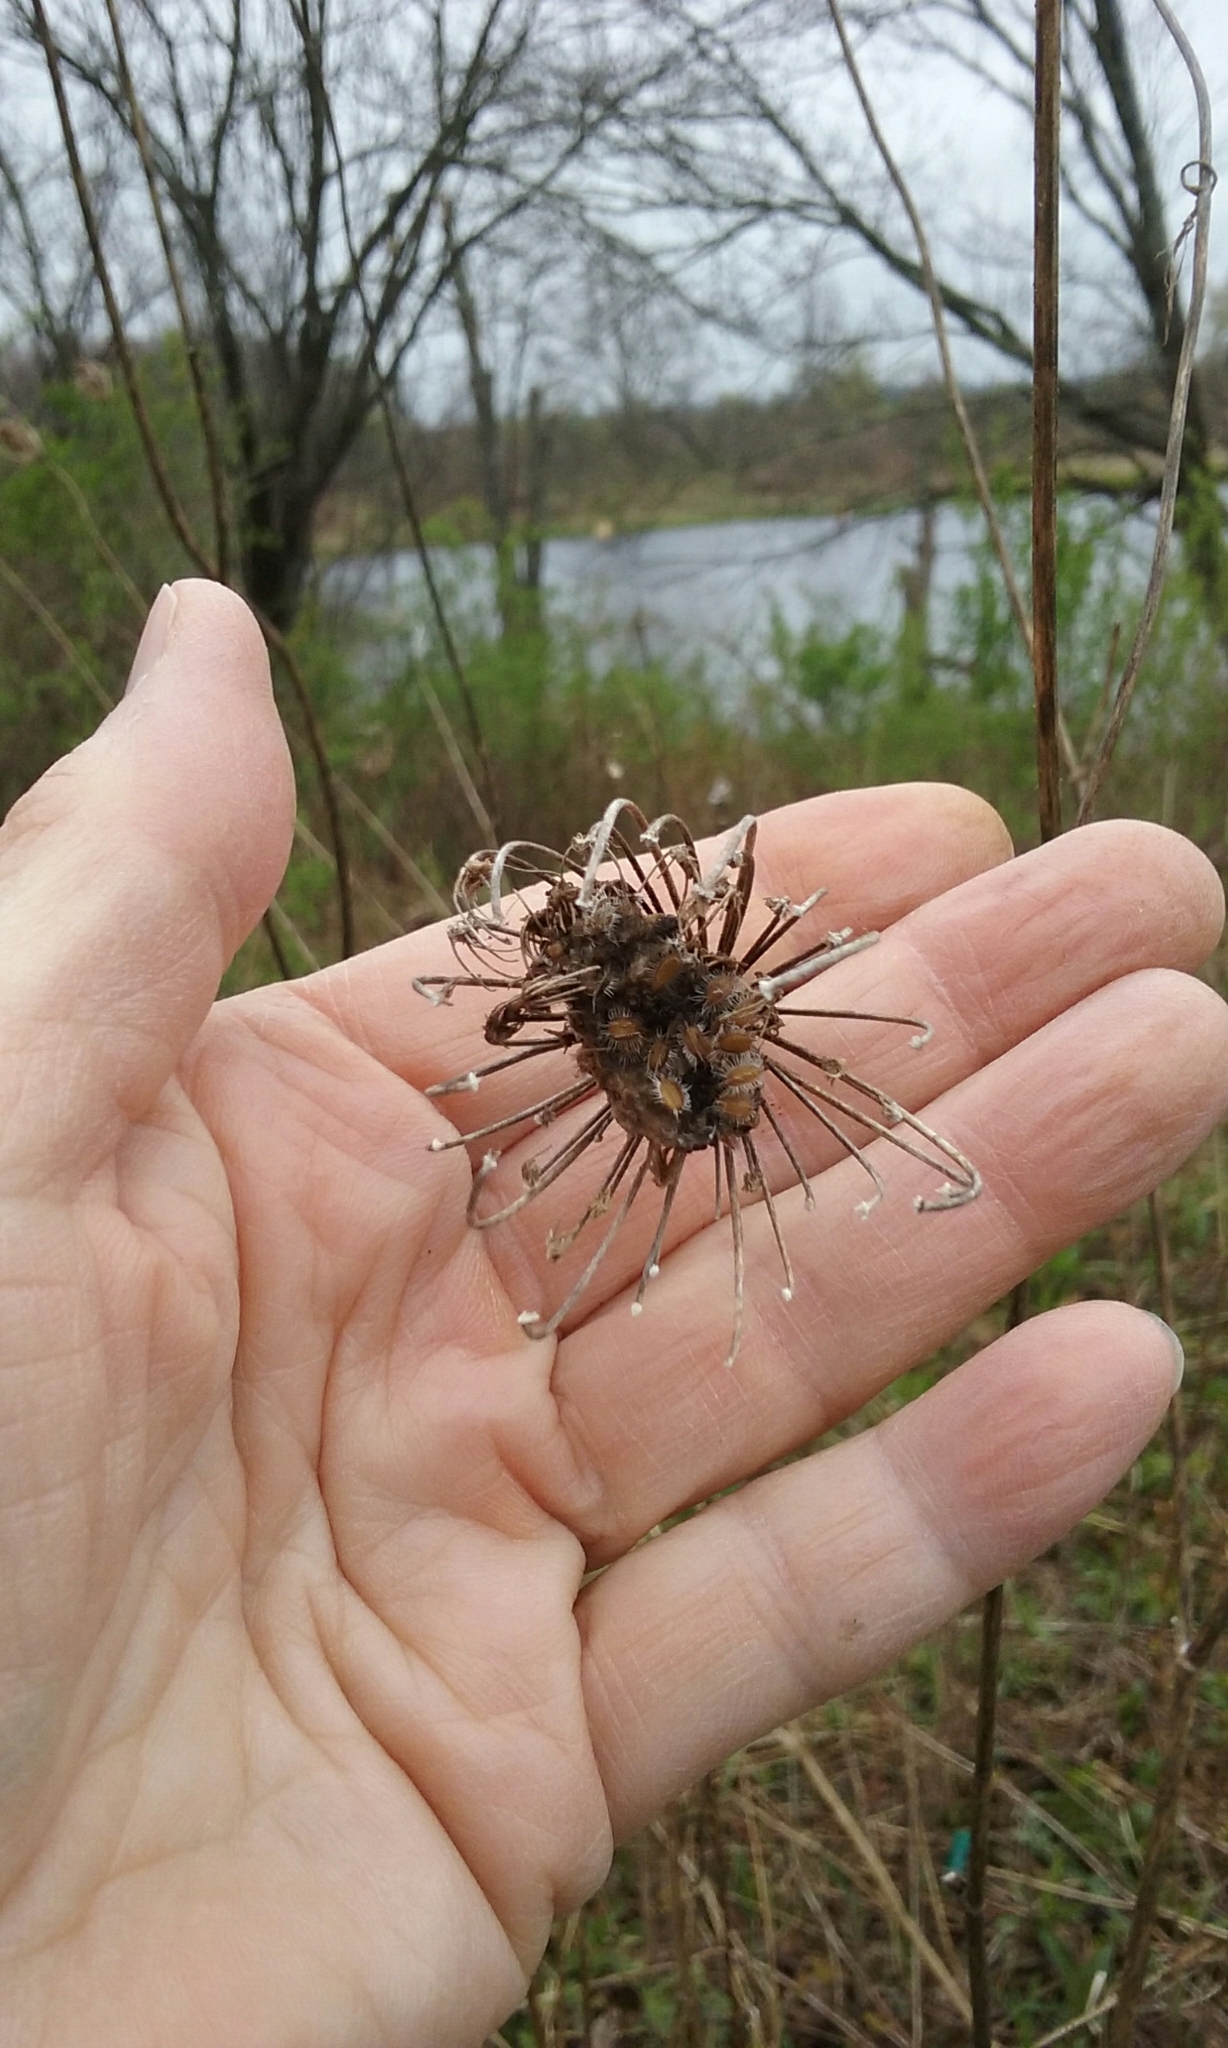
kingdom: Plantae
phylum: Tracheophyta
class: Magnoliopsida
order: Apiales
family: Apiaceae
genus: Daucus
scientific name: Daucus carota
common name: Wild carrot
